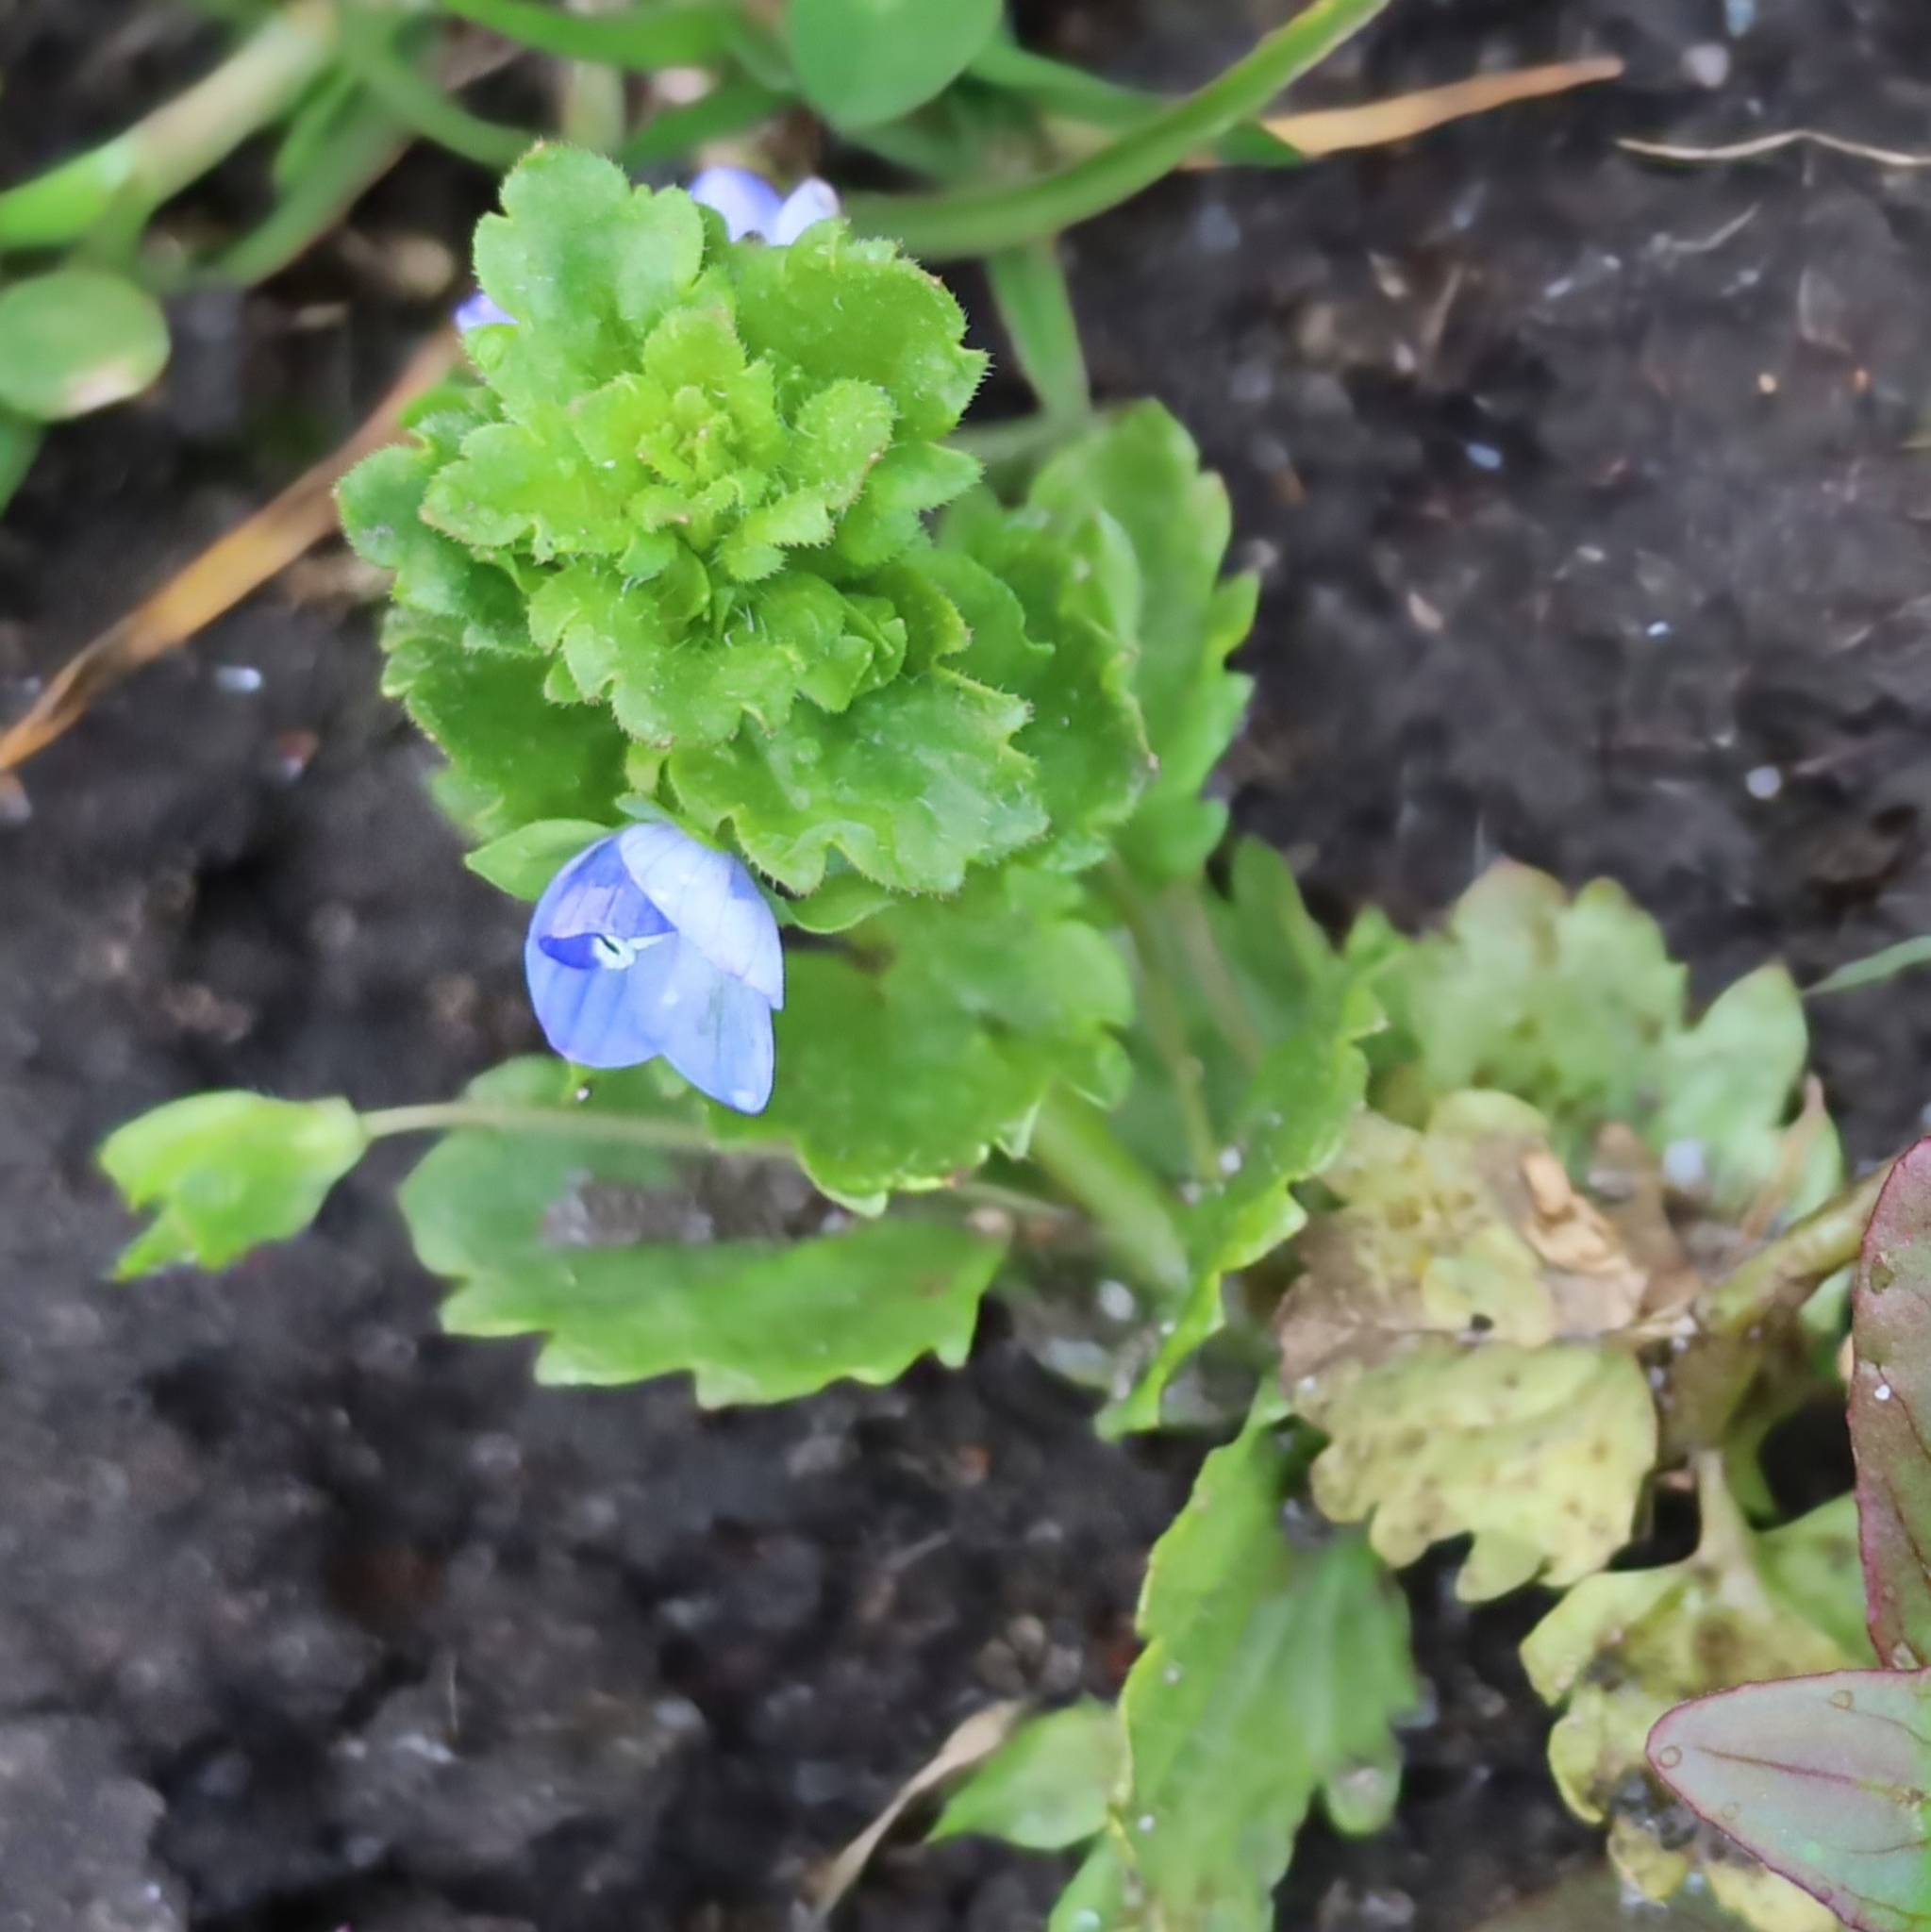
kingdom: Plantae
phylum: Tracheophyta
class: Magnoliopsida
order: Lamiales
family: Plantaginaceae
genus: Veronica
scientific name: Veronica persica
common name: Common field-speedwell
